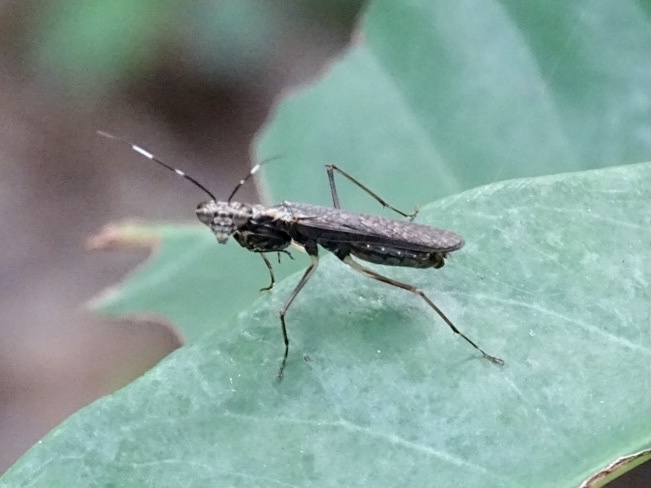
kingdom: Animalia
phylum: Arthropoda
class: Insecta
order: Mantodea
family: Gonypetidae
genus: Spilomantis
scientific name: Spilomantis occipitalis
